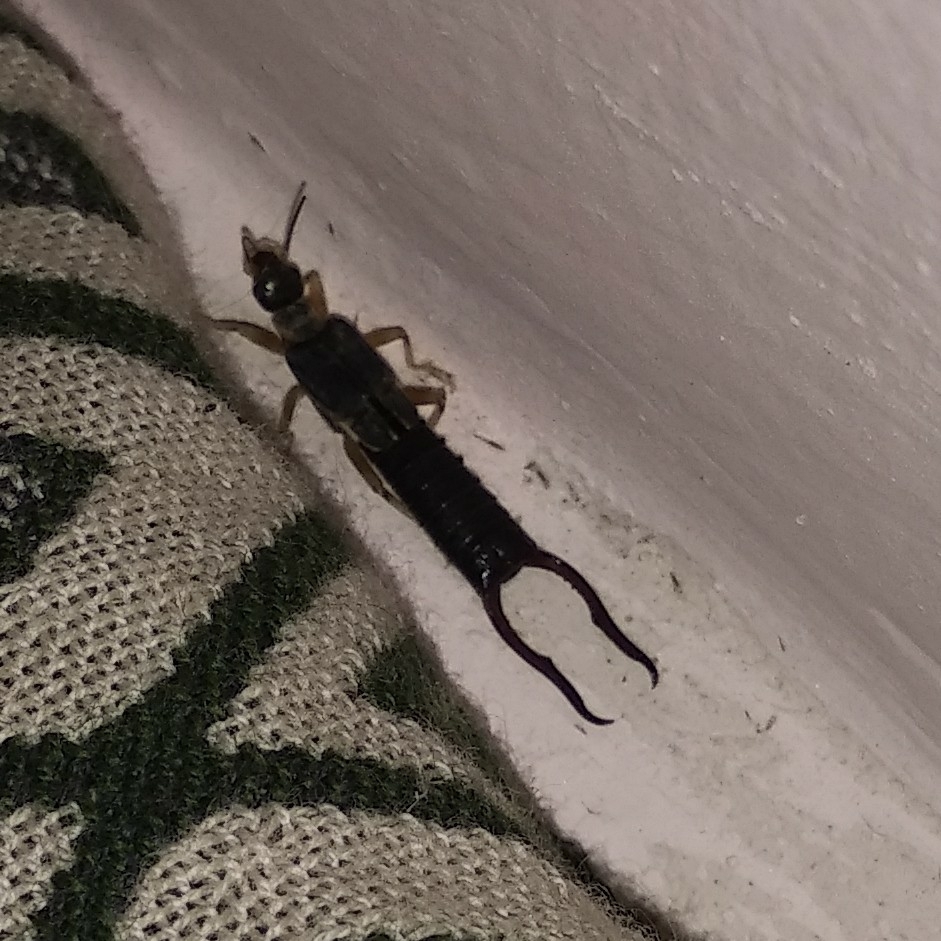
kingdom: Animalia
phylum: Arthropoda
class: Insecta
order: Dermaptera
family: Labiduridae
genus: Forcipula
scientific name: Forcipula quadrispinosa
